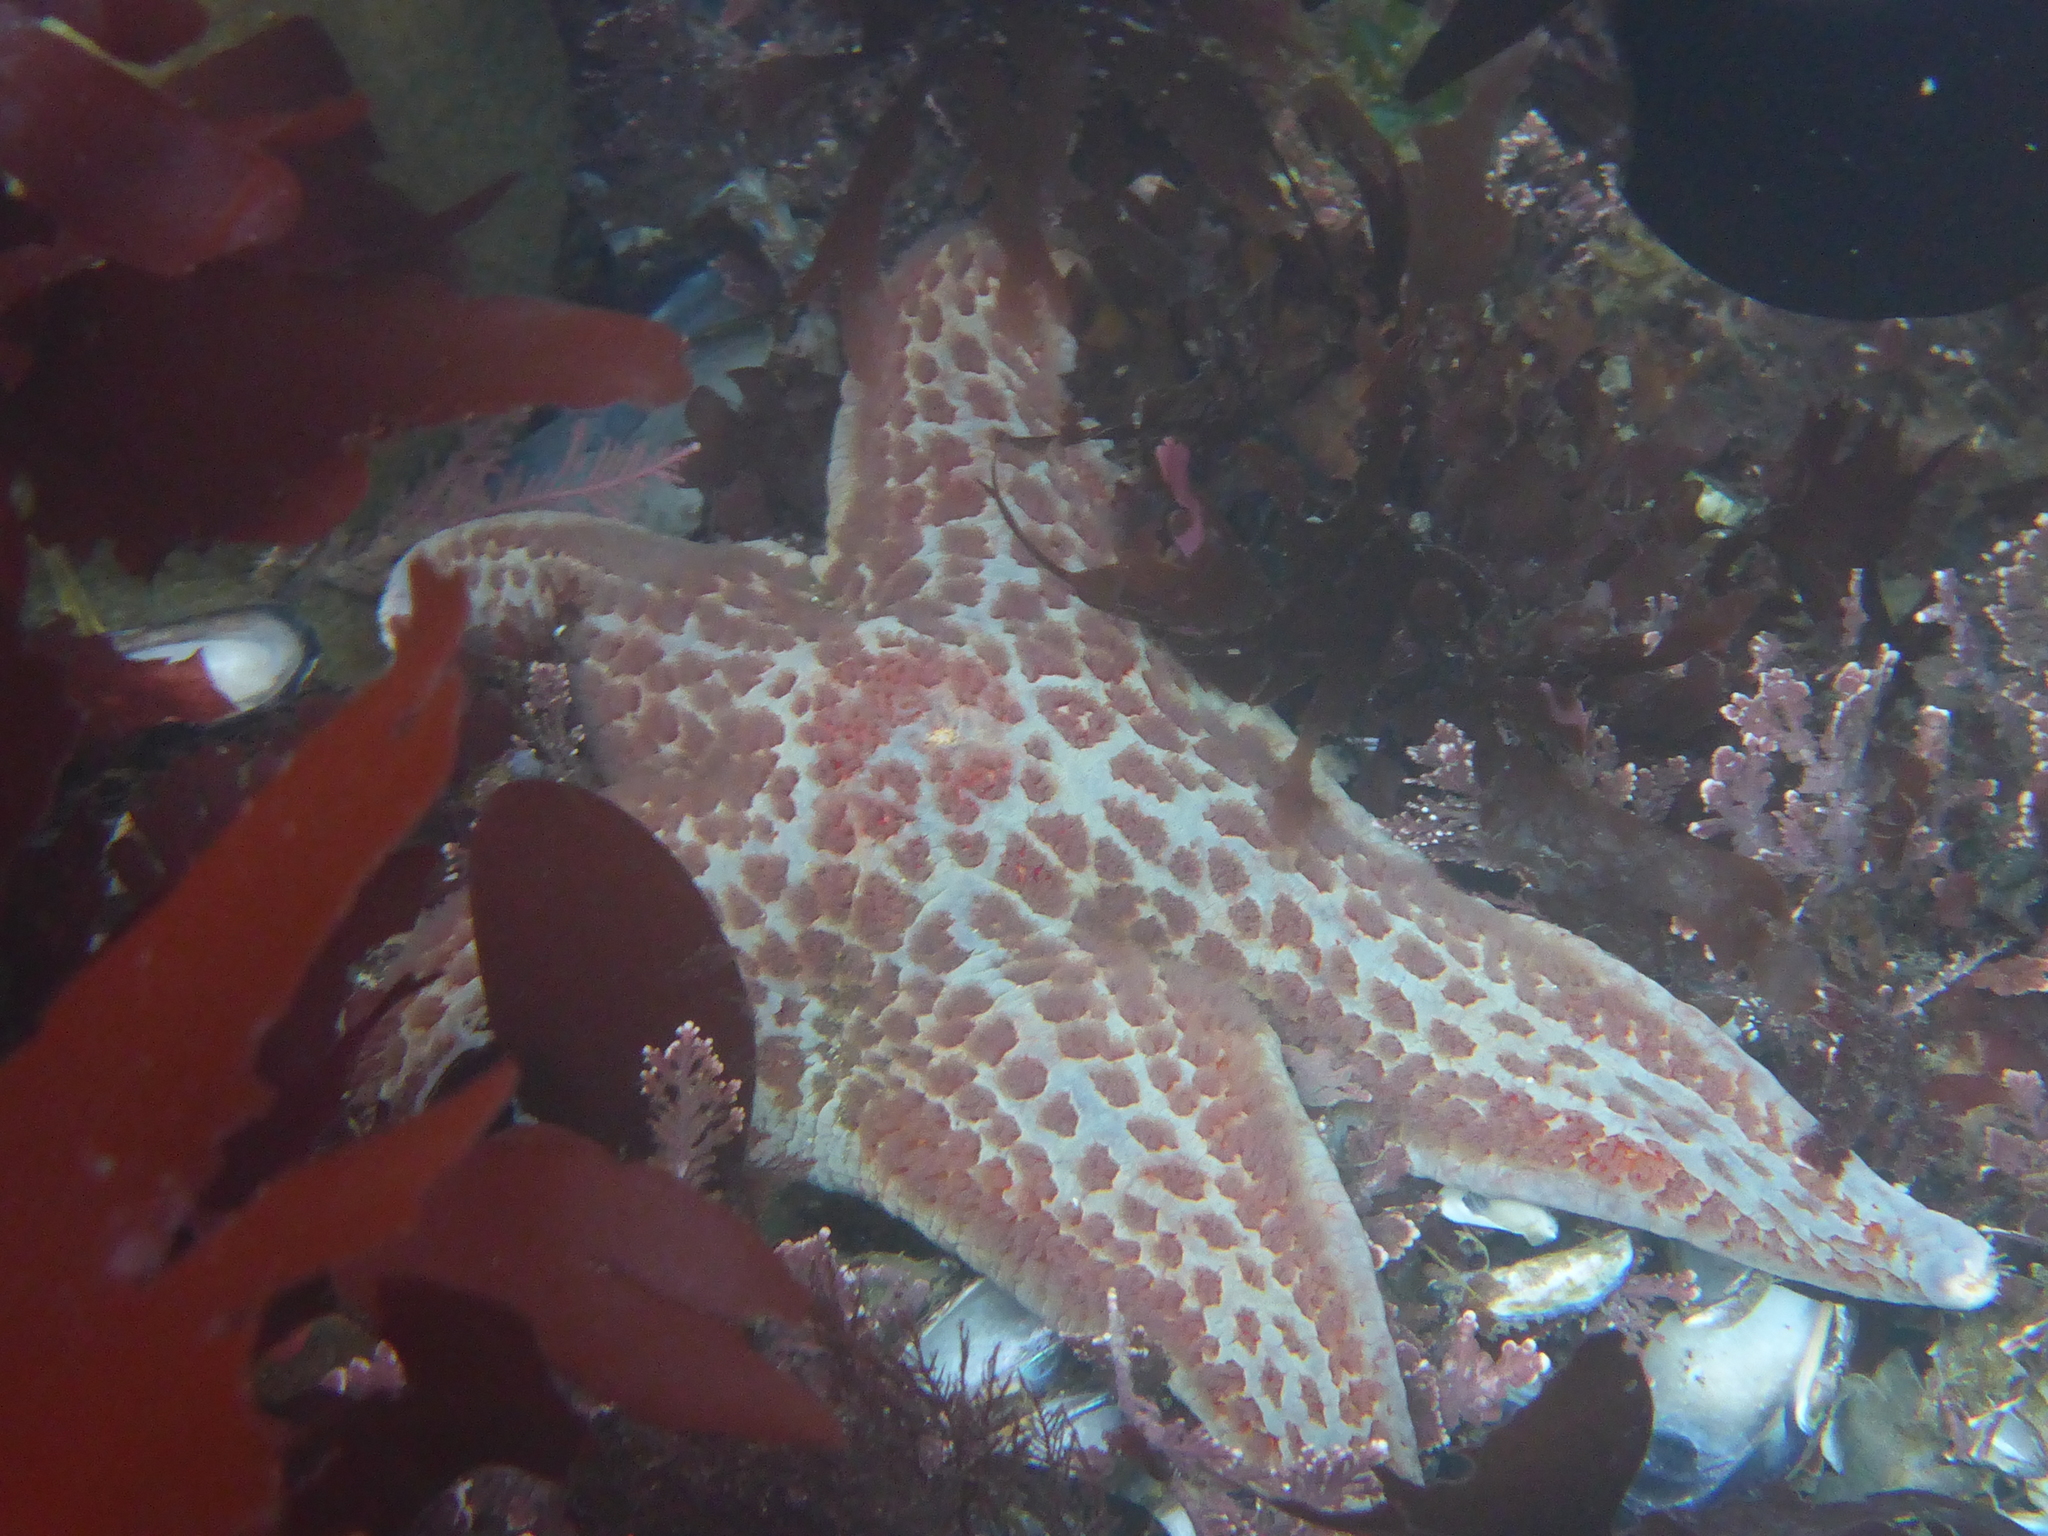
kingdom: Animalia
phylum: Echinodermata
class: Asteroidea
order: Valvatida
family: Asteropseidae
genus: Dermasterias
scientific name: Dermasterias imbricata
